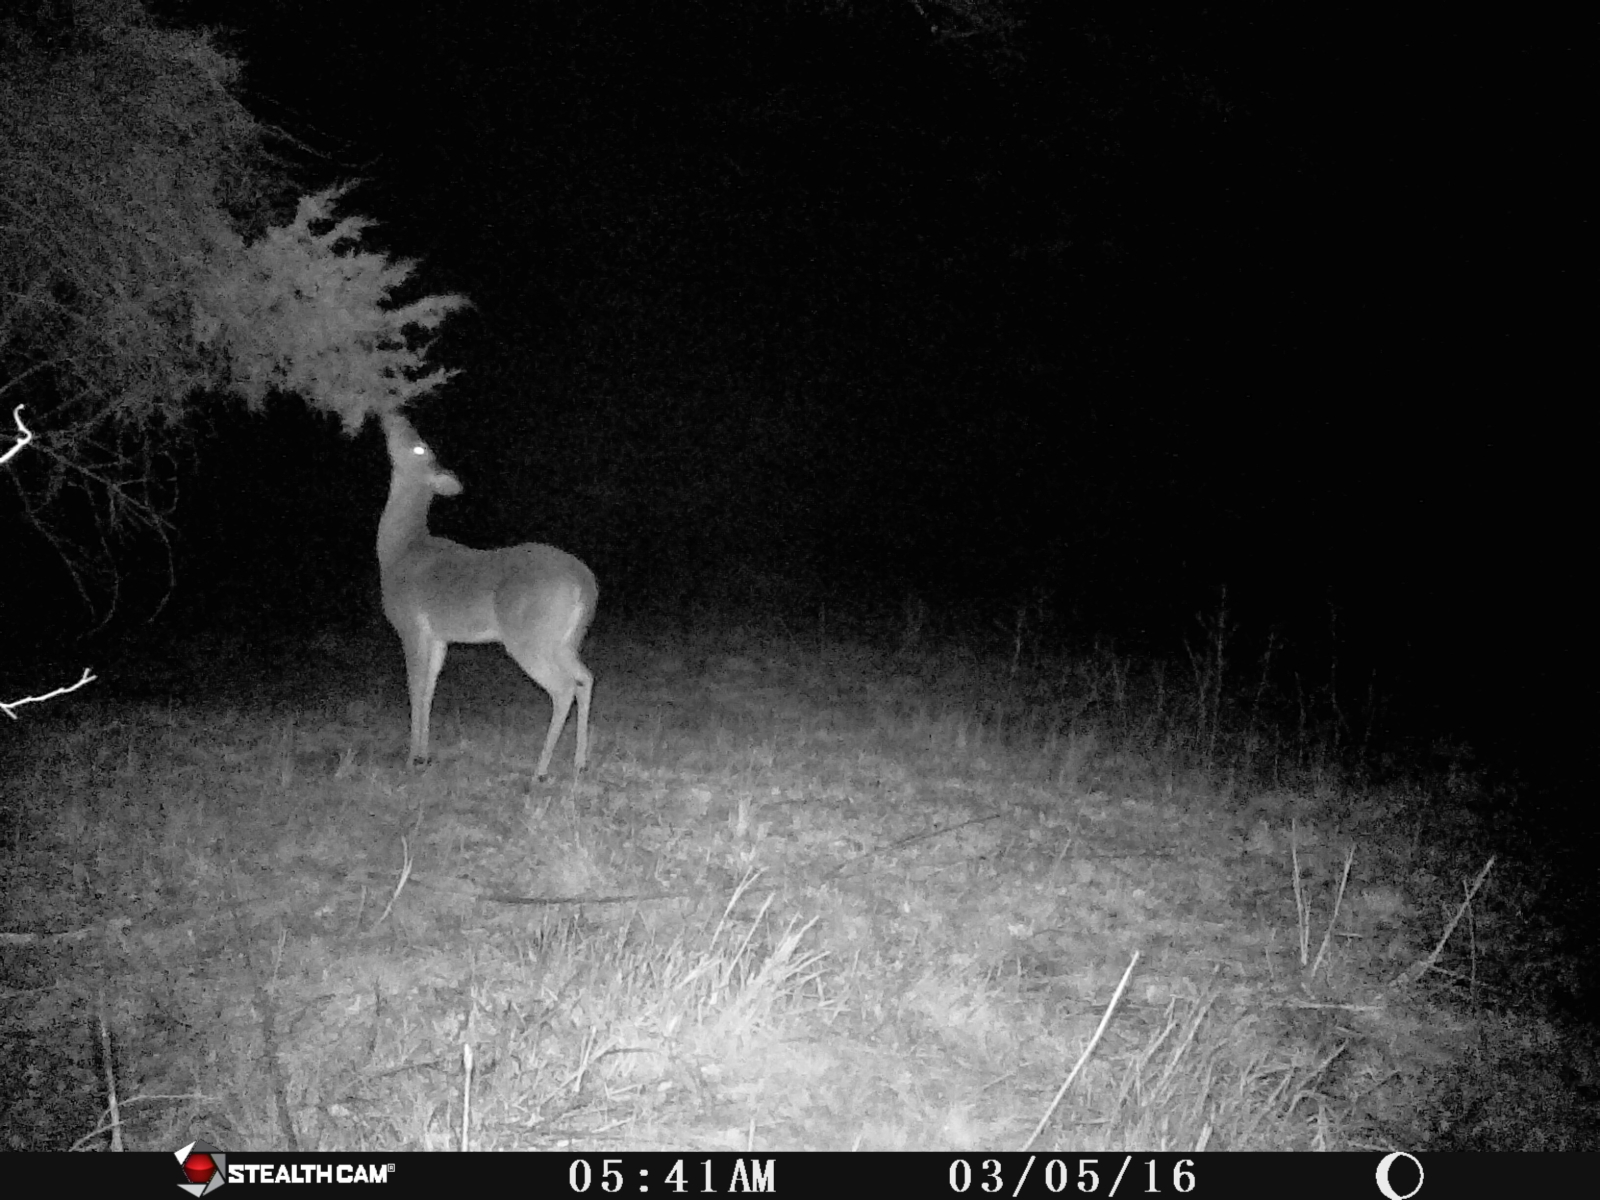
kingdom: Animalia
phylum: Chordata
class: Mammalia
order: Artiodactyla
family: Cervidae
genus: Odocoileus
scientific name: Odocoileus virginianus
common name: White-tailed deer
